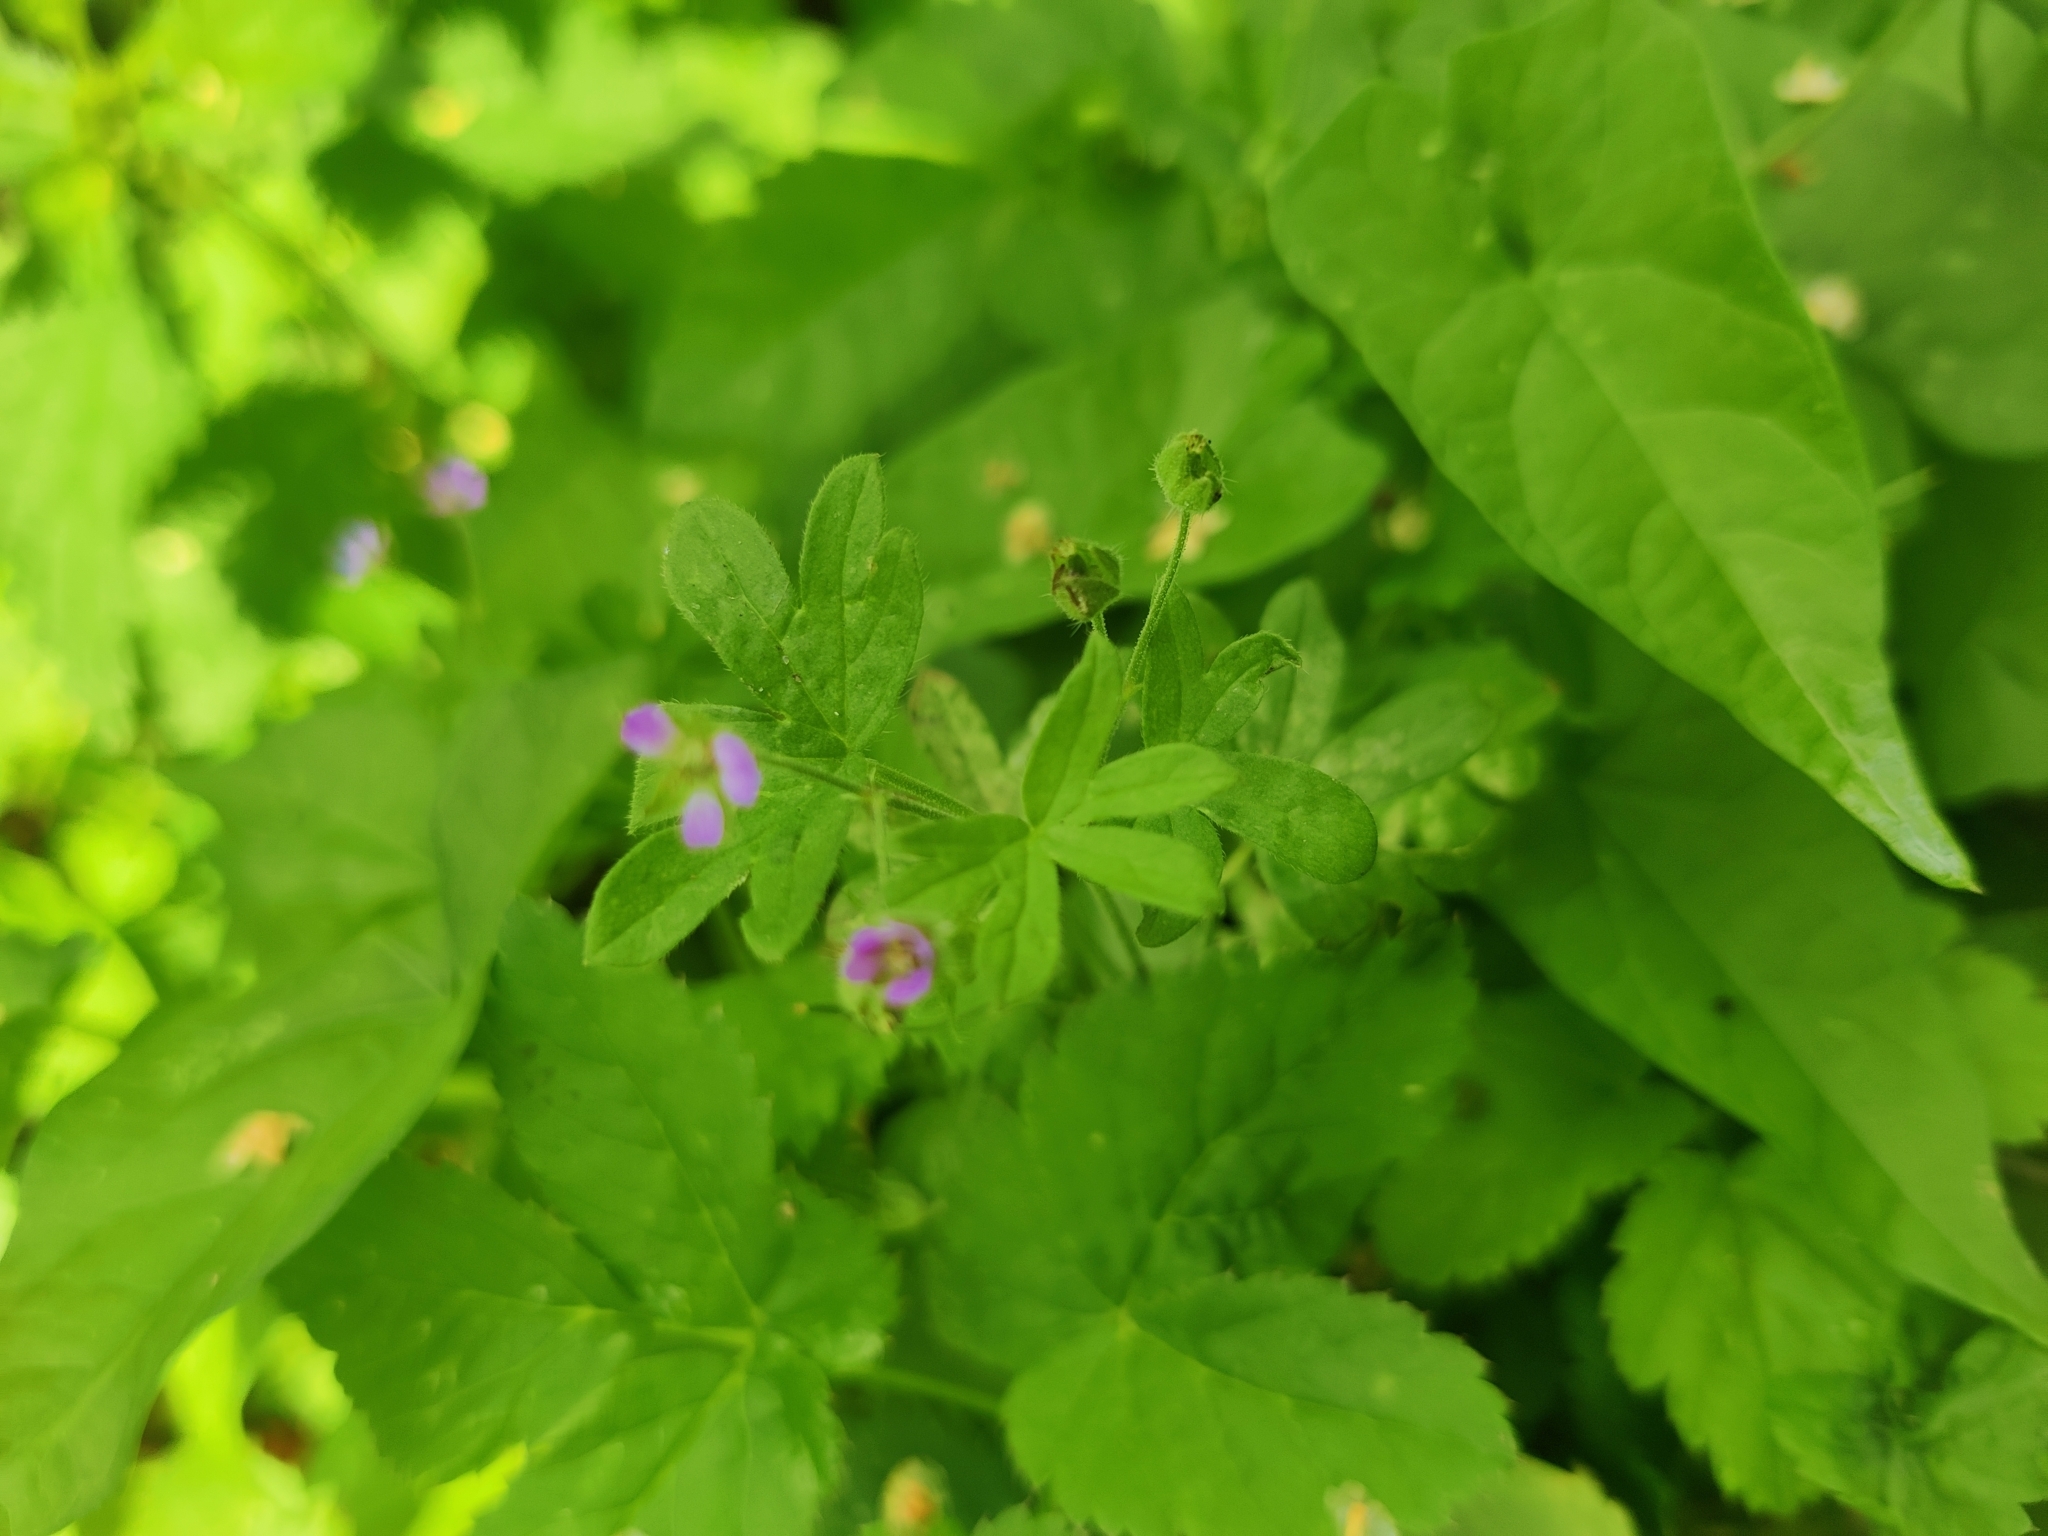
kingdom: Plantae
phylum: Tracheophyta
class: Magnoliopsida
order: Geraniales
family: Geraniaceae
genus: Geranium
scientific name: Geranium pusillum
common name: Small geranium
